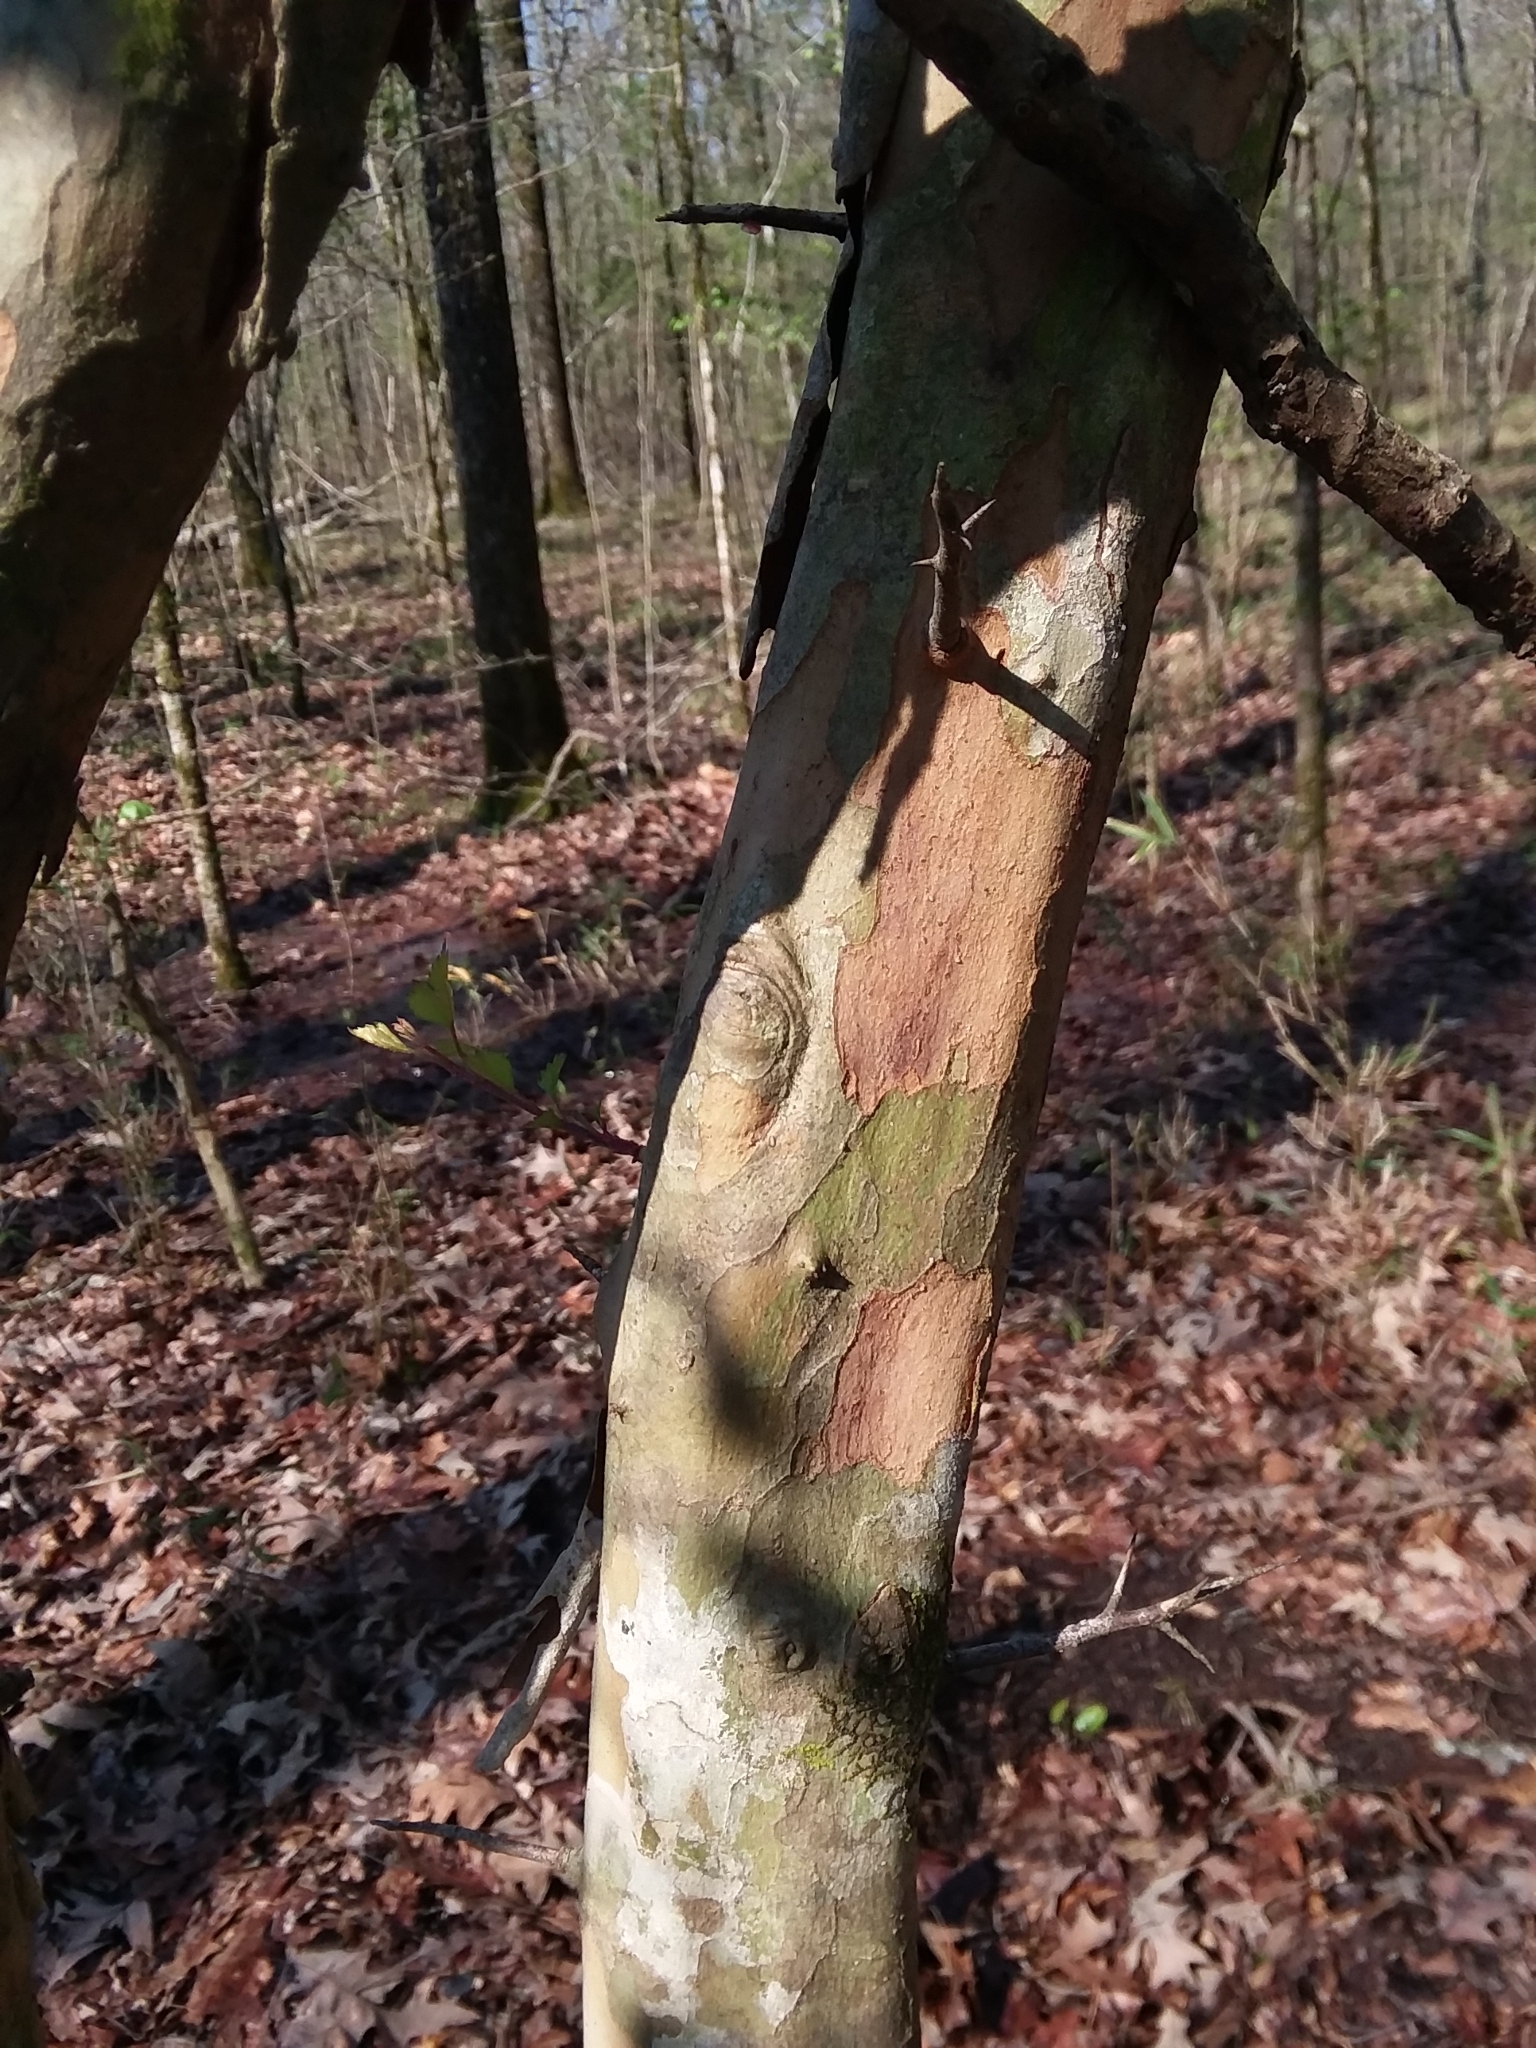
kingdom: Plantae
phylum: Tracheophyta
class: Magnoliopsida
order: Rosales
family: Rosaceae
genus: Crataegus
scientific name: Crataegus marshallii
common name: Parsley-hawthorn
